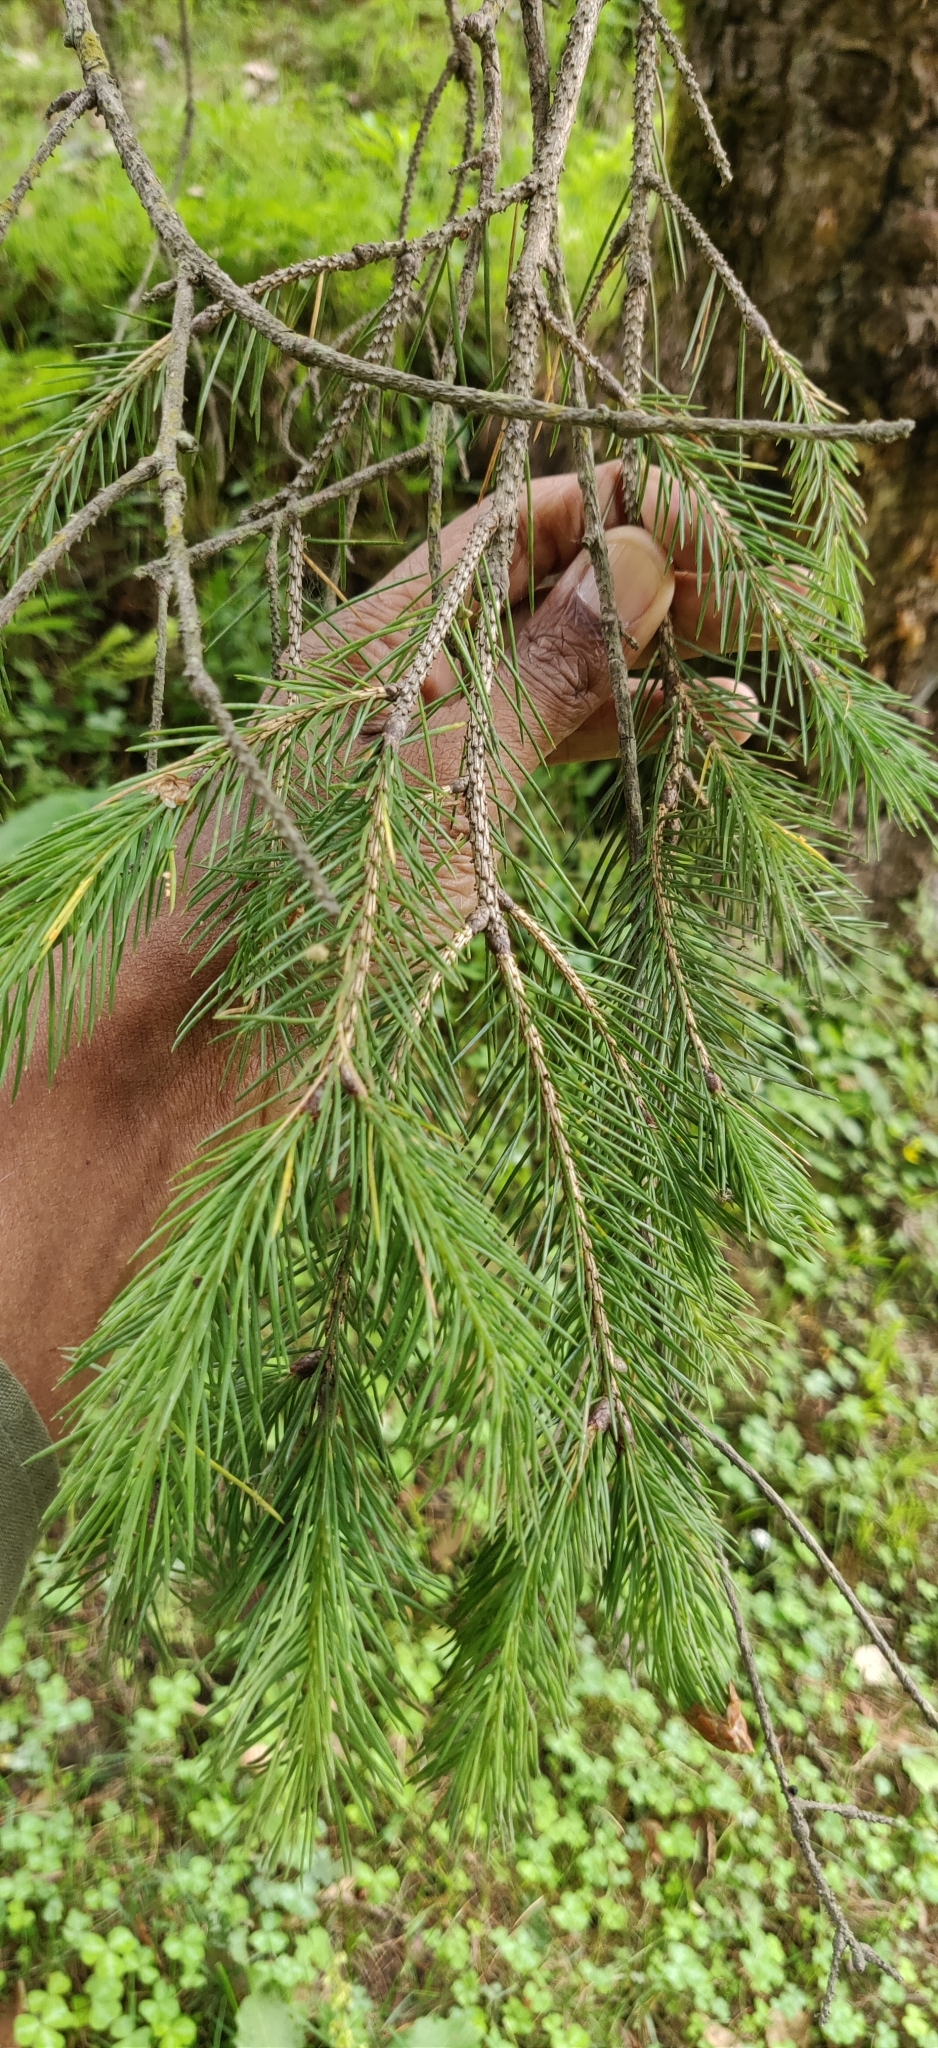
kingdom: Plantae
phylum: Tracheophyta
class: Pinopsida
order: Pinales
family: Pinaceae
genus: Picea
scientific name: Picea smithiana
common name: Morinda spruce
